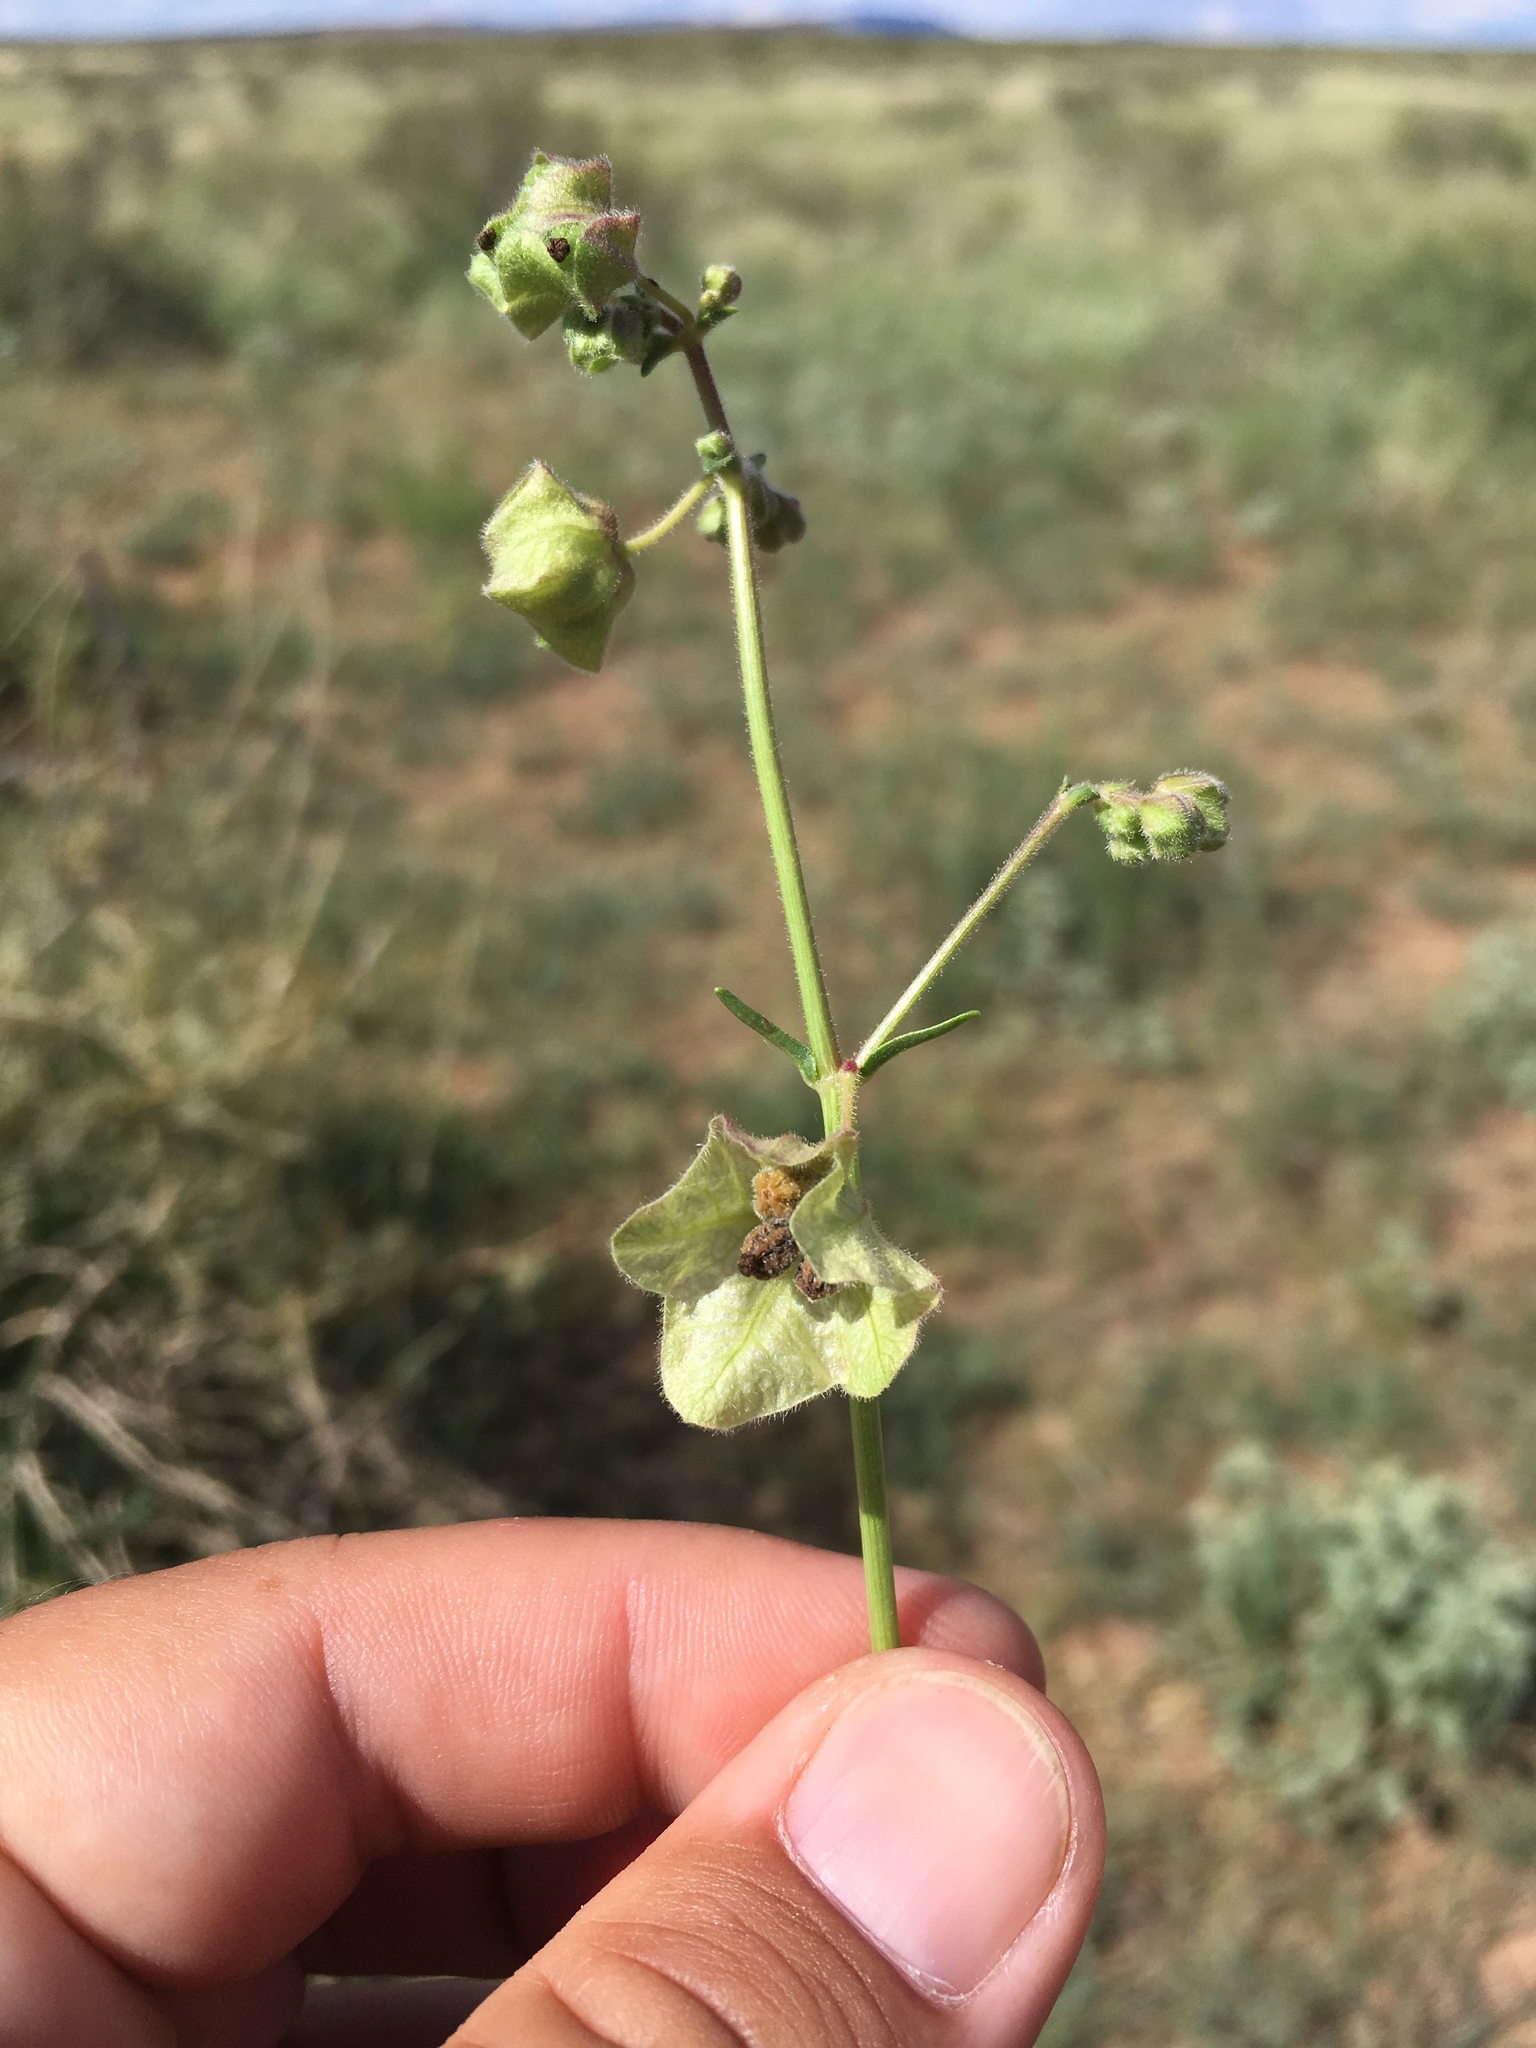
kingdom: Plantae
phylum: Tracheophyta
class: Magnoliopsida
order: Caryophyllales
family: Nyctaginaceae
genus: Mirabilis
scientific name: Mirabilis linearis
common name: Linear-leaved four-o'clock
